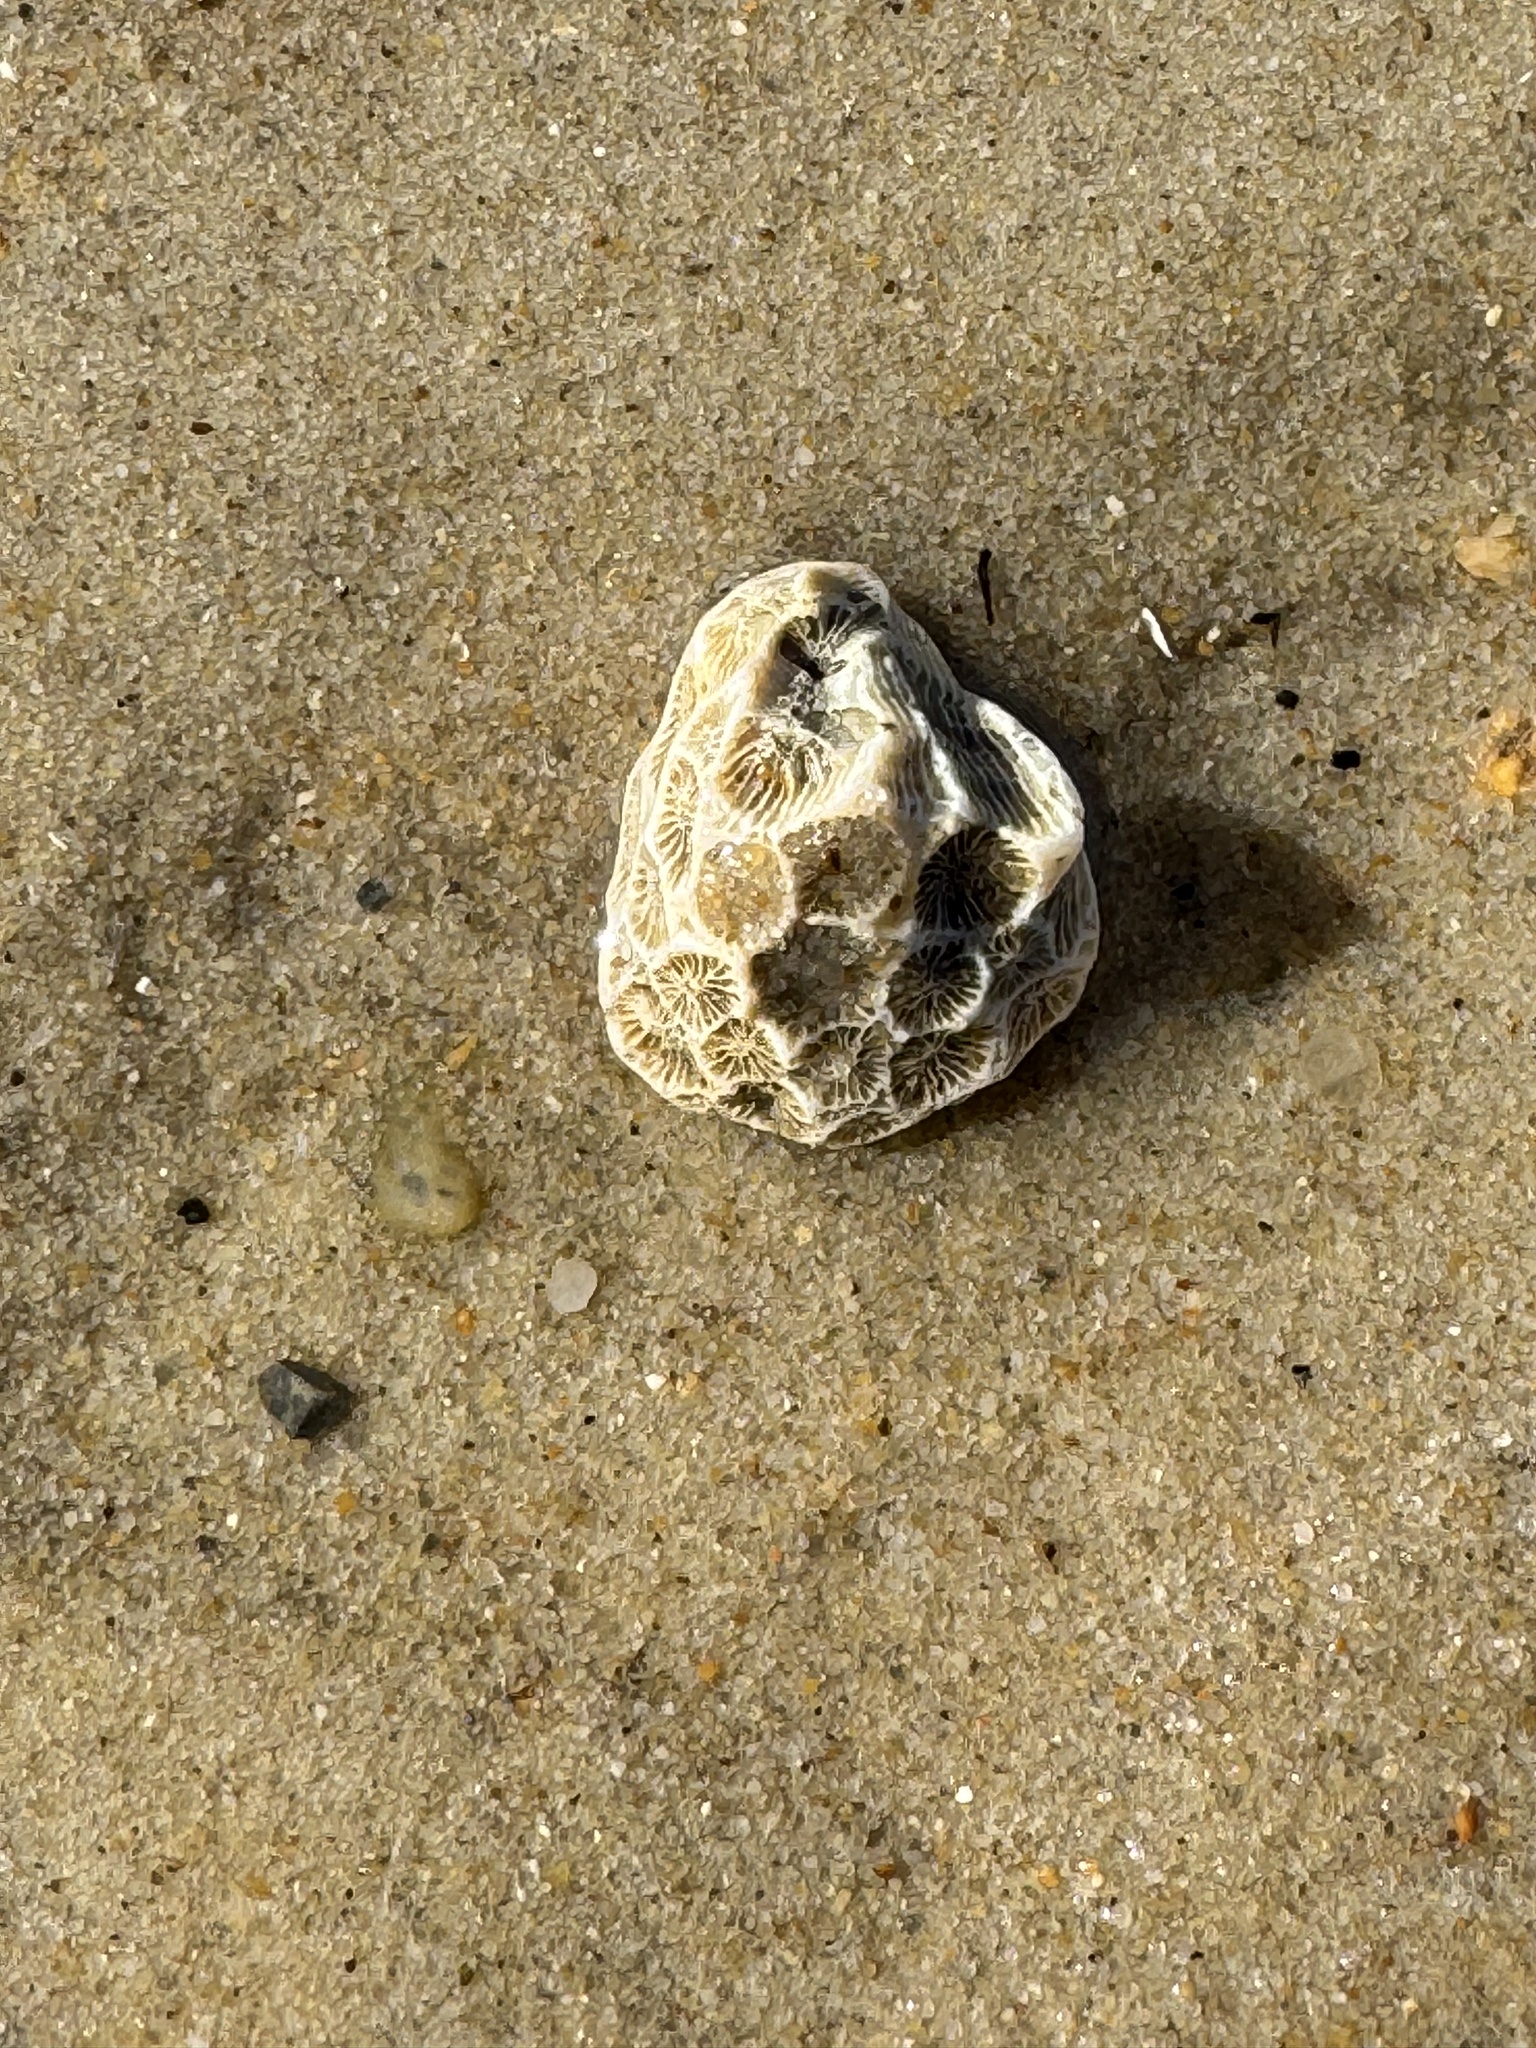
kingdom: Animalia
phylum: Cnidaria
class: Anthozoa
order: Scleractinia
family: Astrangiidae
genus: Astrangia
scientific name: Astrangia poculata
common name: Northern star coral
